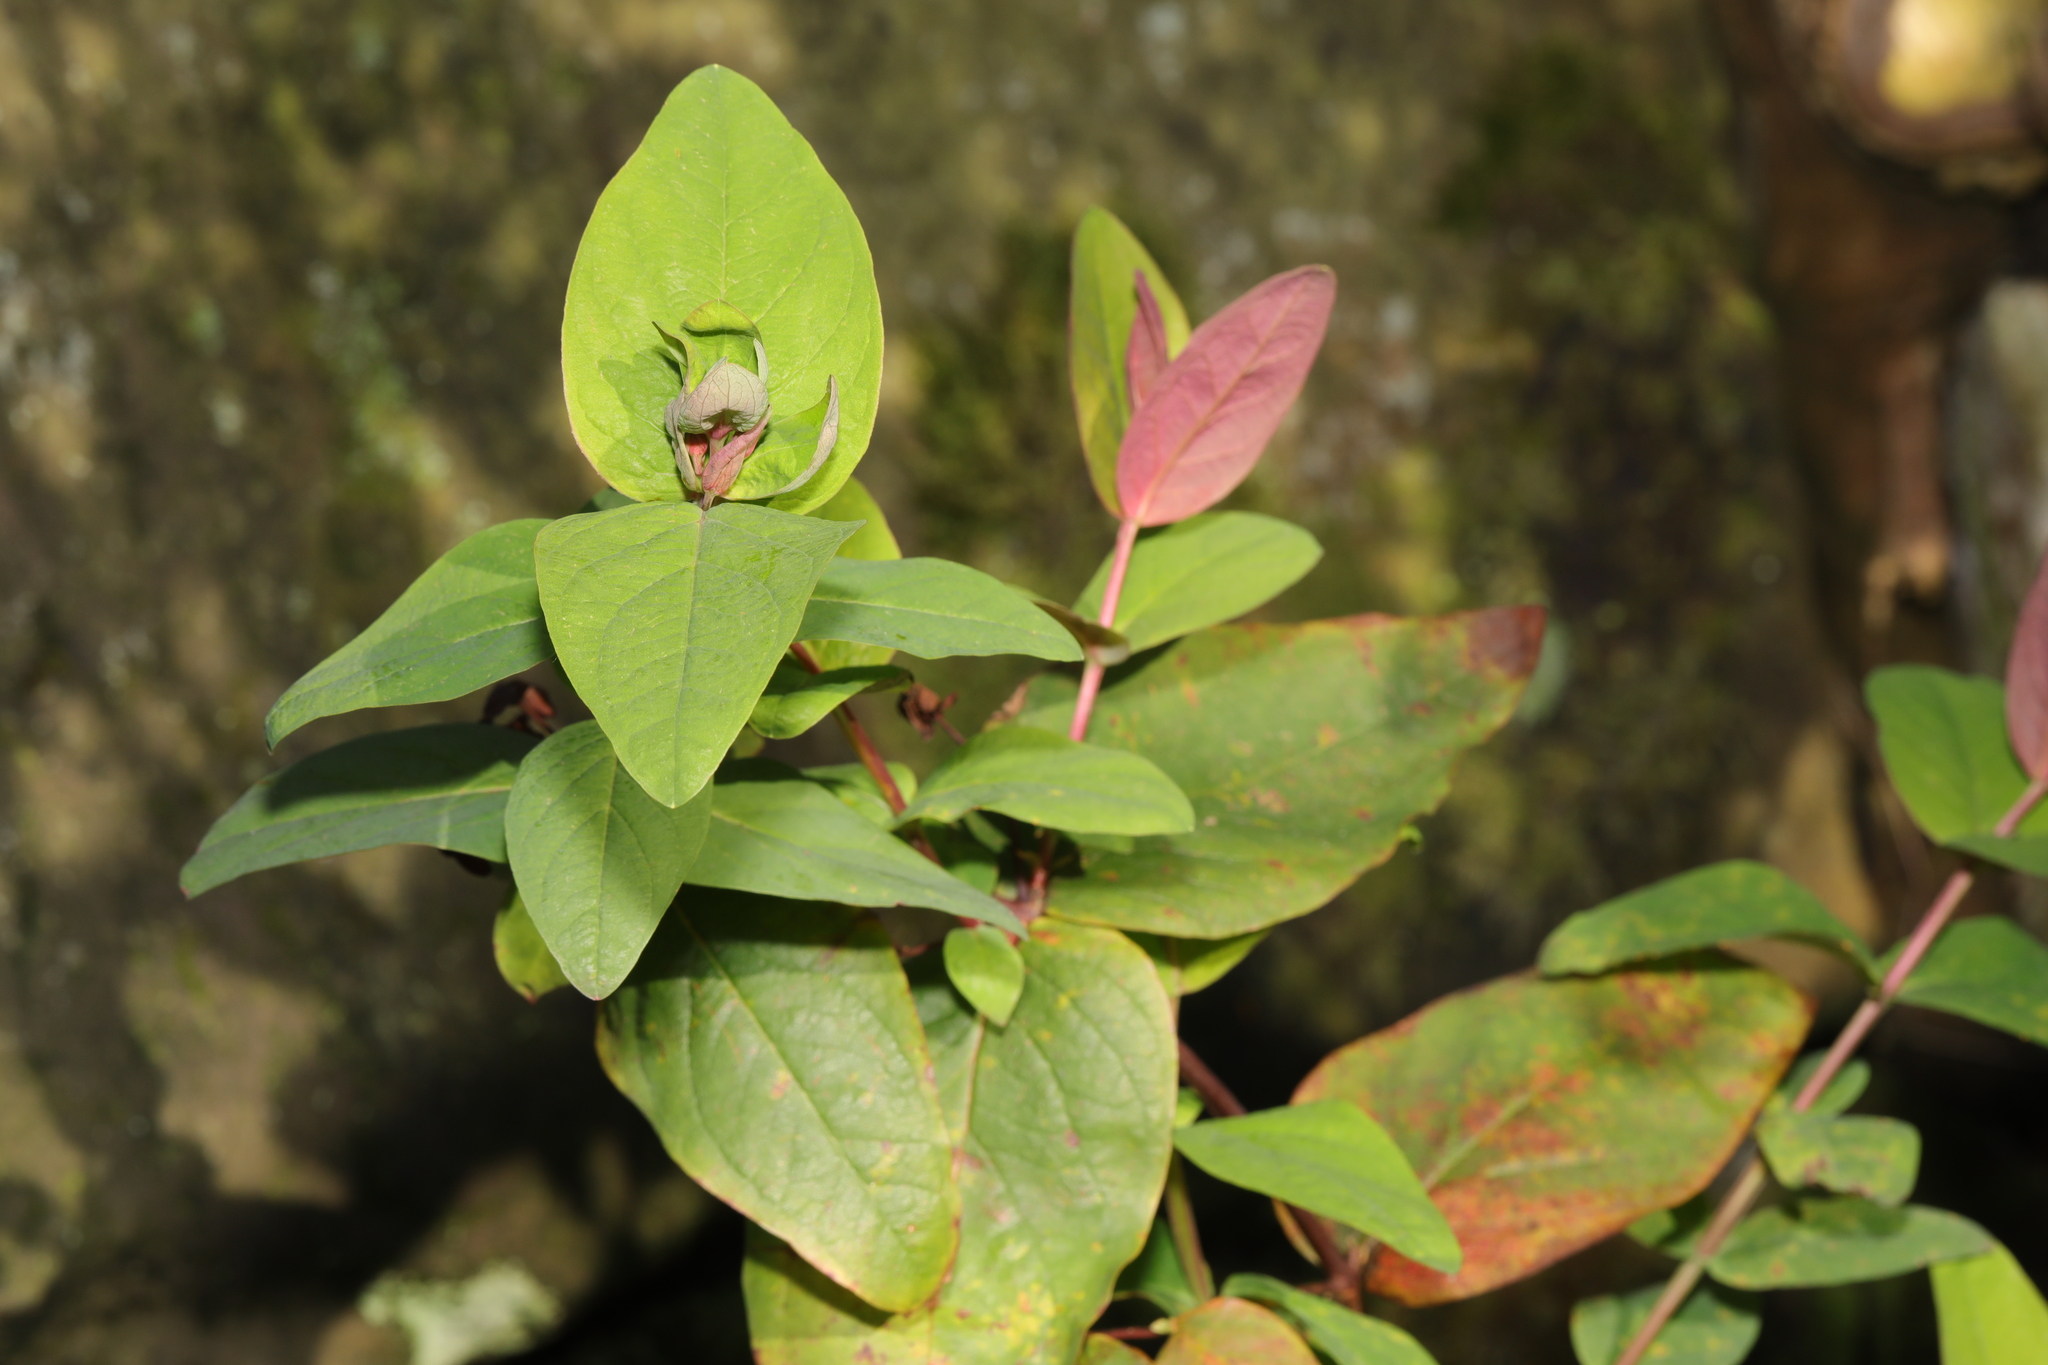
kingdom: Plantae
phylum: Tracheophyta
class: Magnoliopsida
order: Malpighiales
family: Hypericaceae
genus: Hypericum
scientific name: Hypericum androsaemum
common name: Sweet-amber
